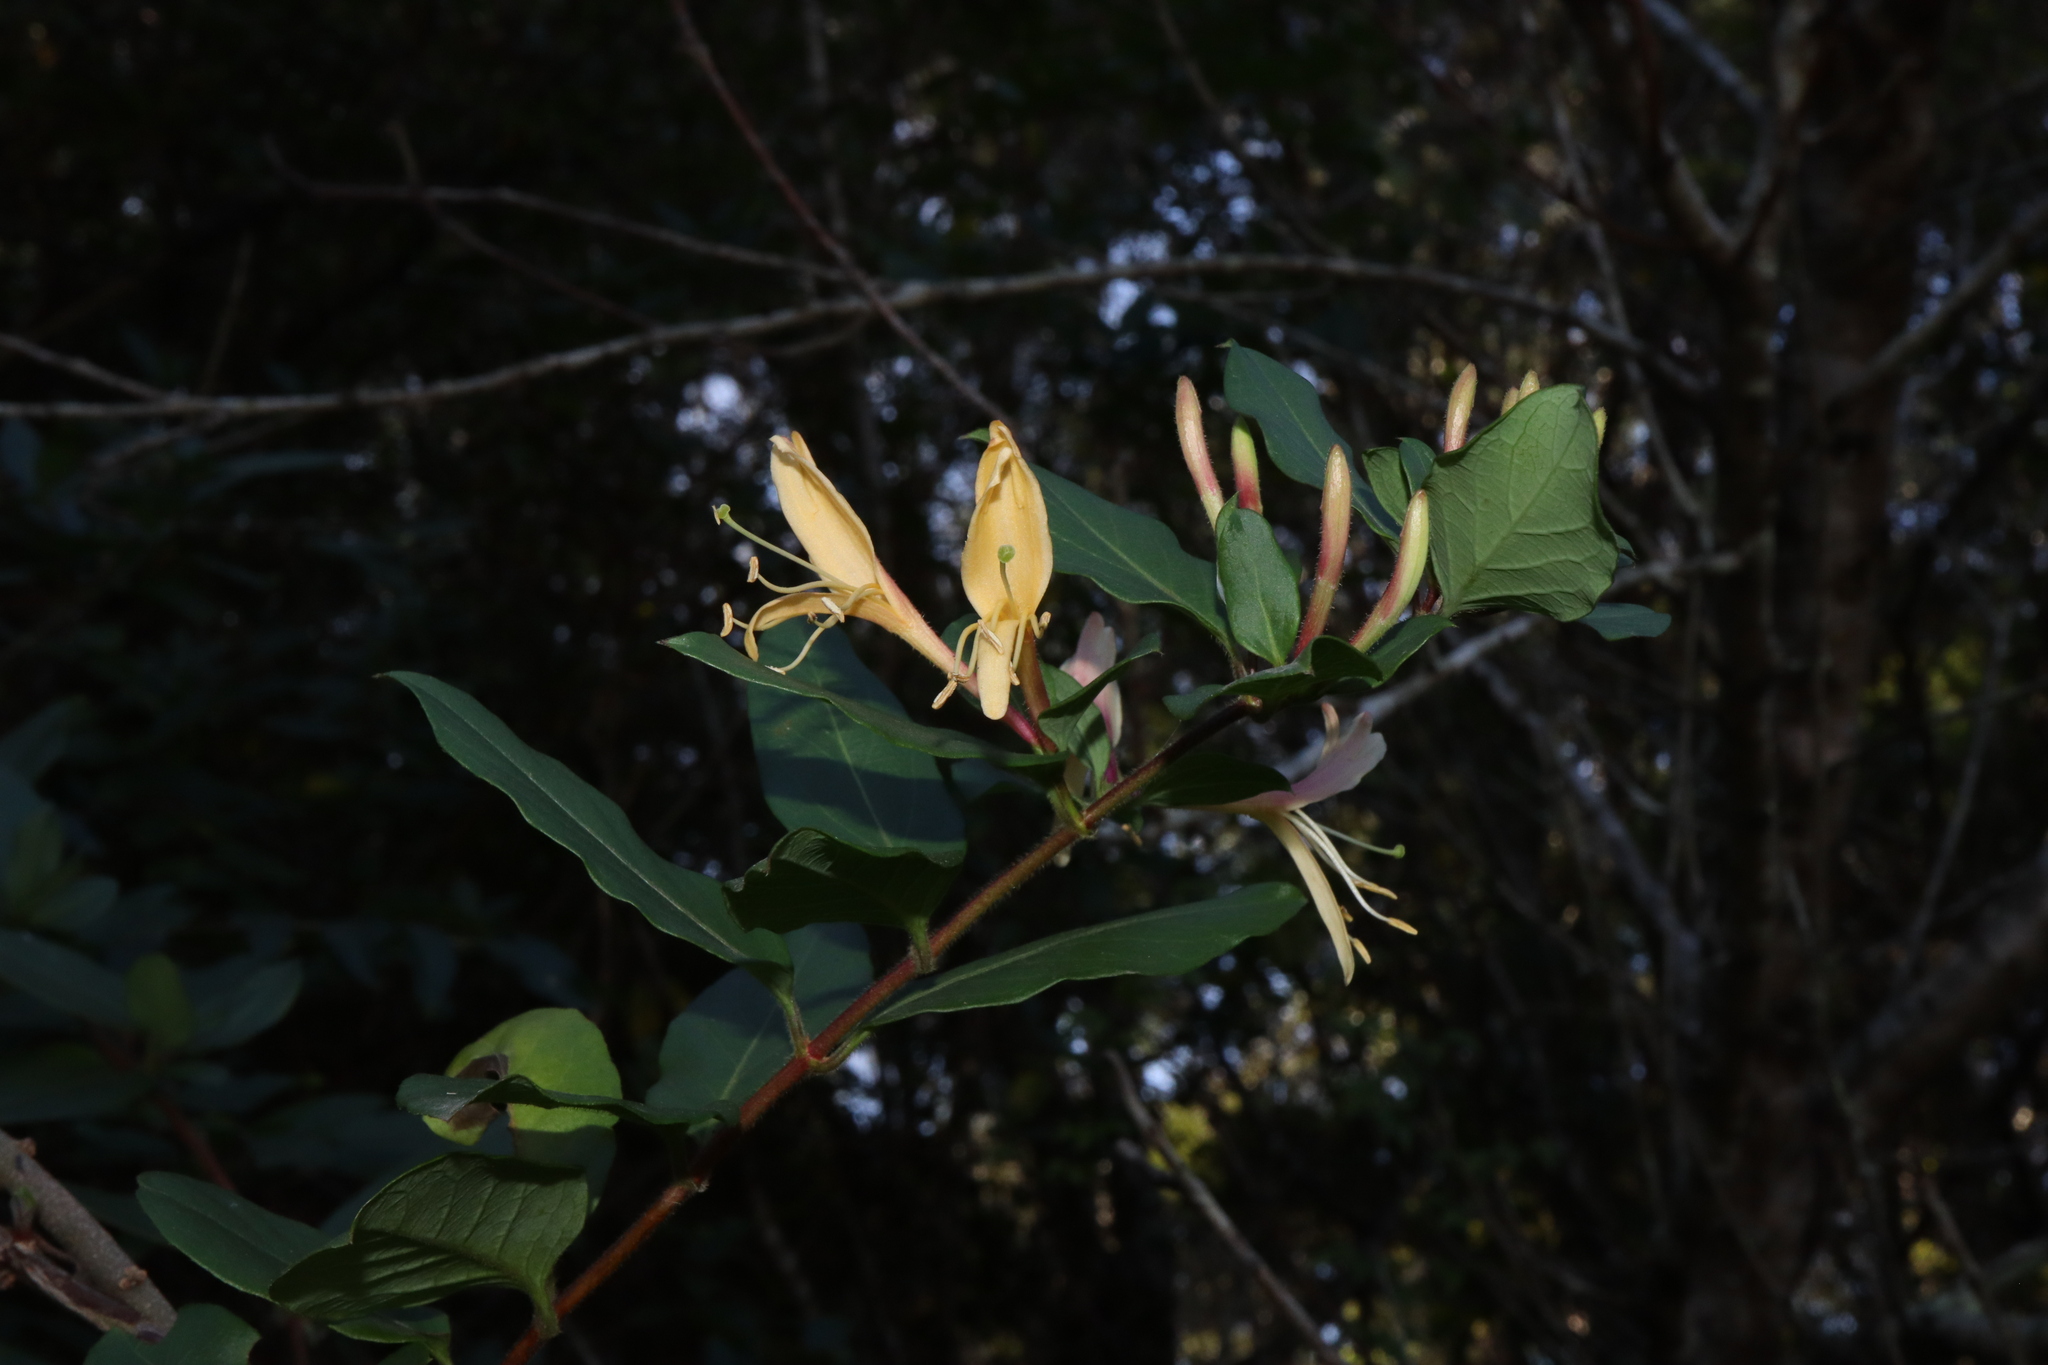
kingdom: Plantae
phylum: Tracheophyta
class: Magnoliopsida
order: Dipsacales
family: Caprifoliaceae
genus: Lonicera
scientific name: Lonicera japonica
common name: Japanese honeysuckle
